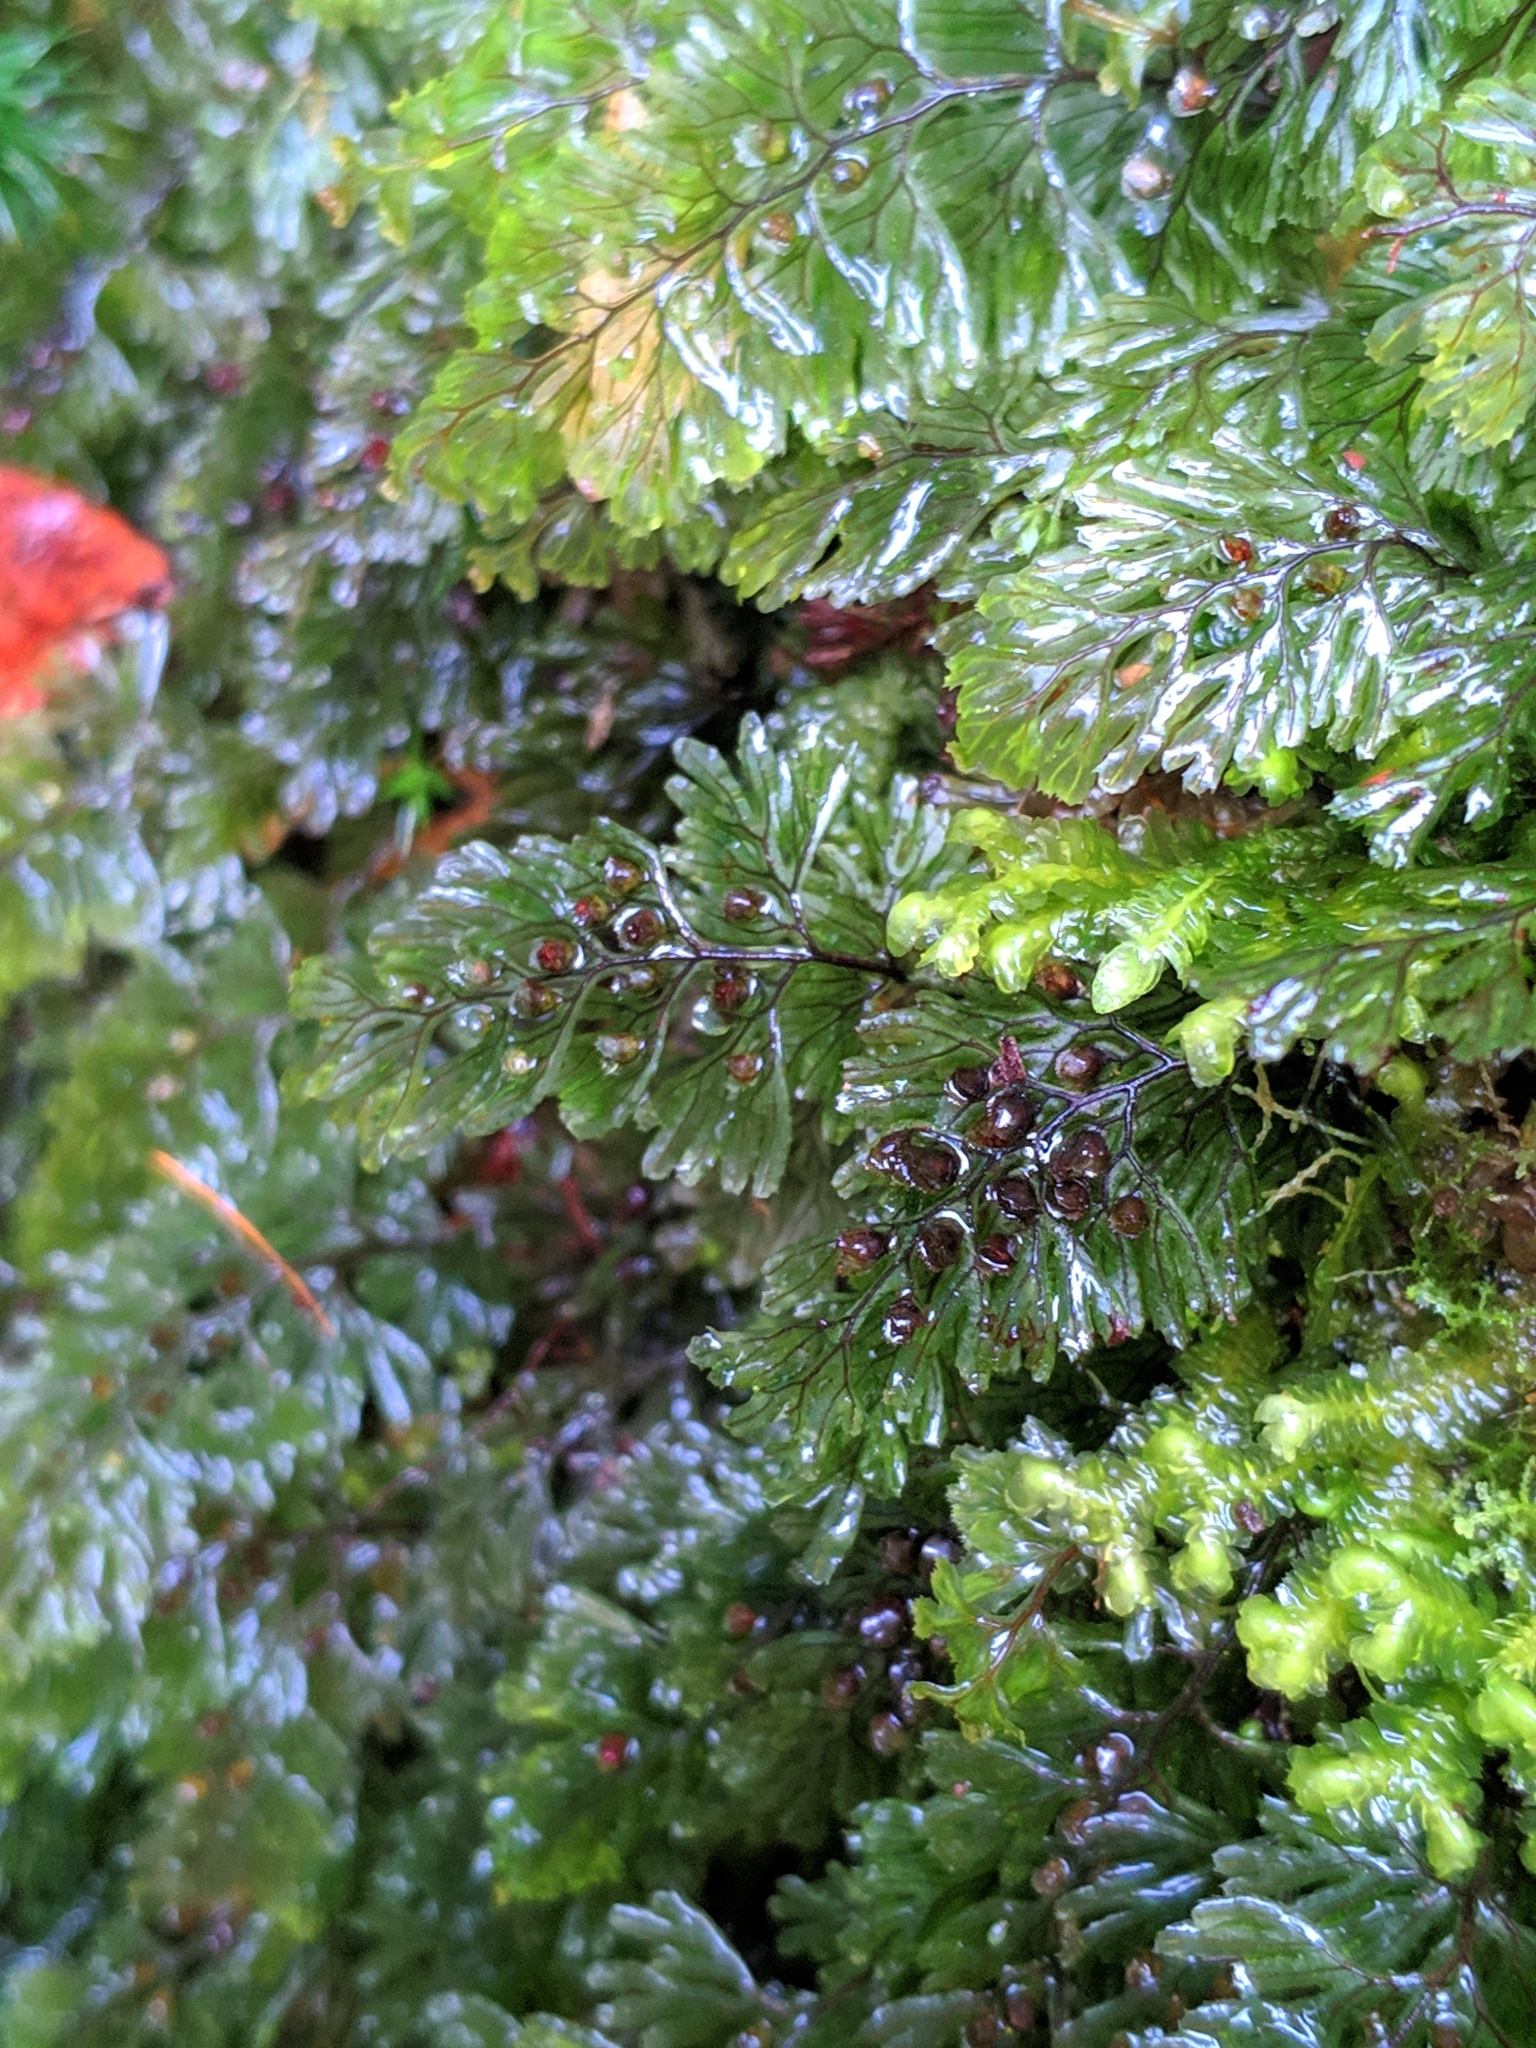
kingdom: Plantae
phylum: Tracheophyta
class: Polypodiopsida
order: Hymenophyllales
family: Hymenophyllaceae
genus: Hymenophyllum
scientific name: Hymenophyllum tunbrigense
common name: Tunbridge filmy fern
